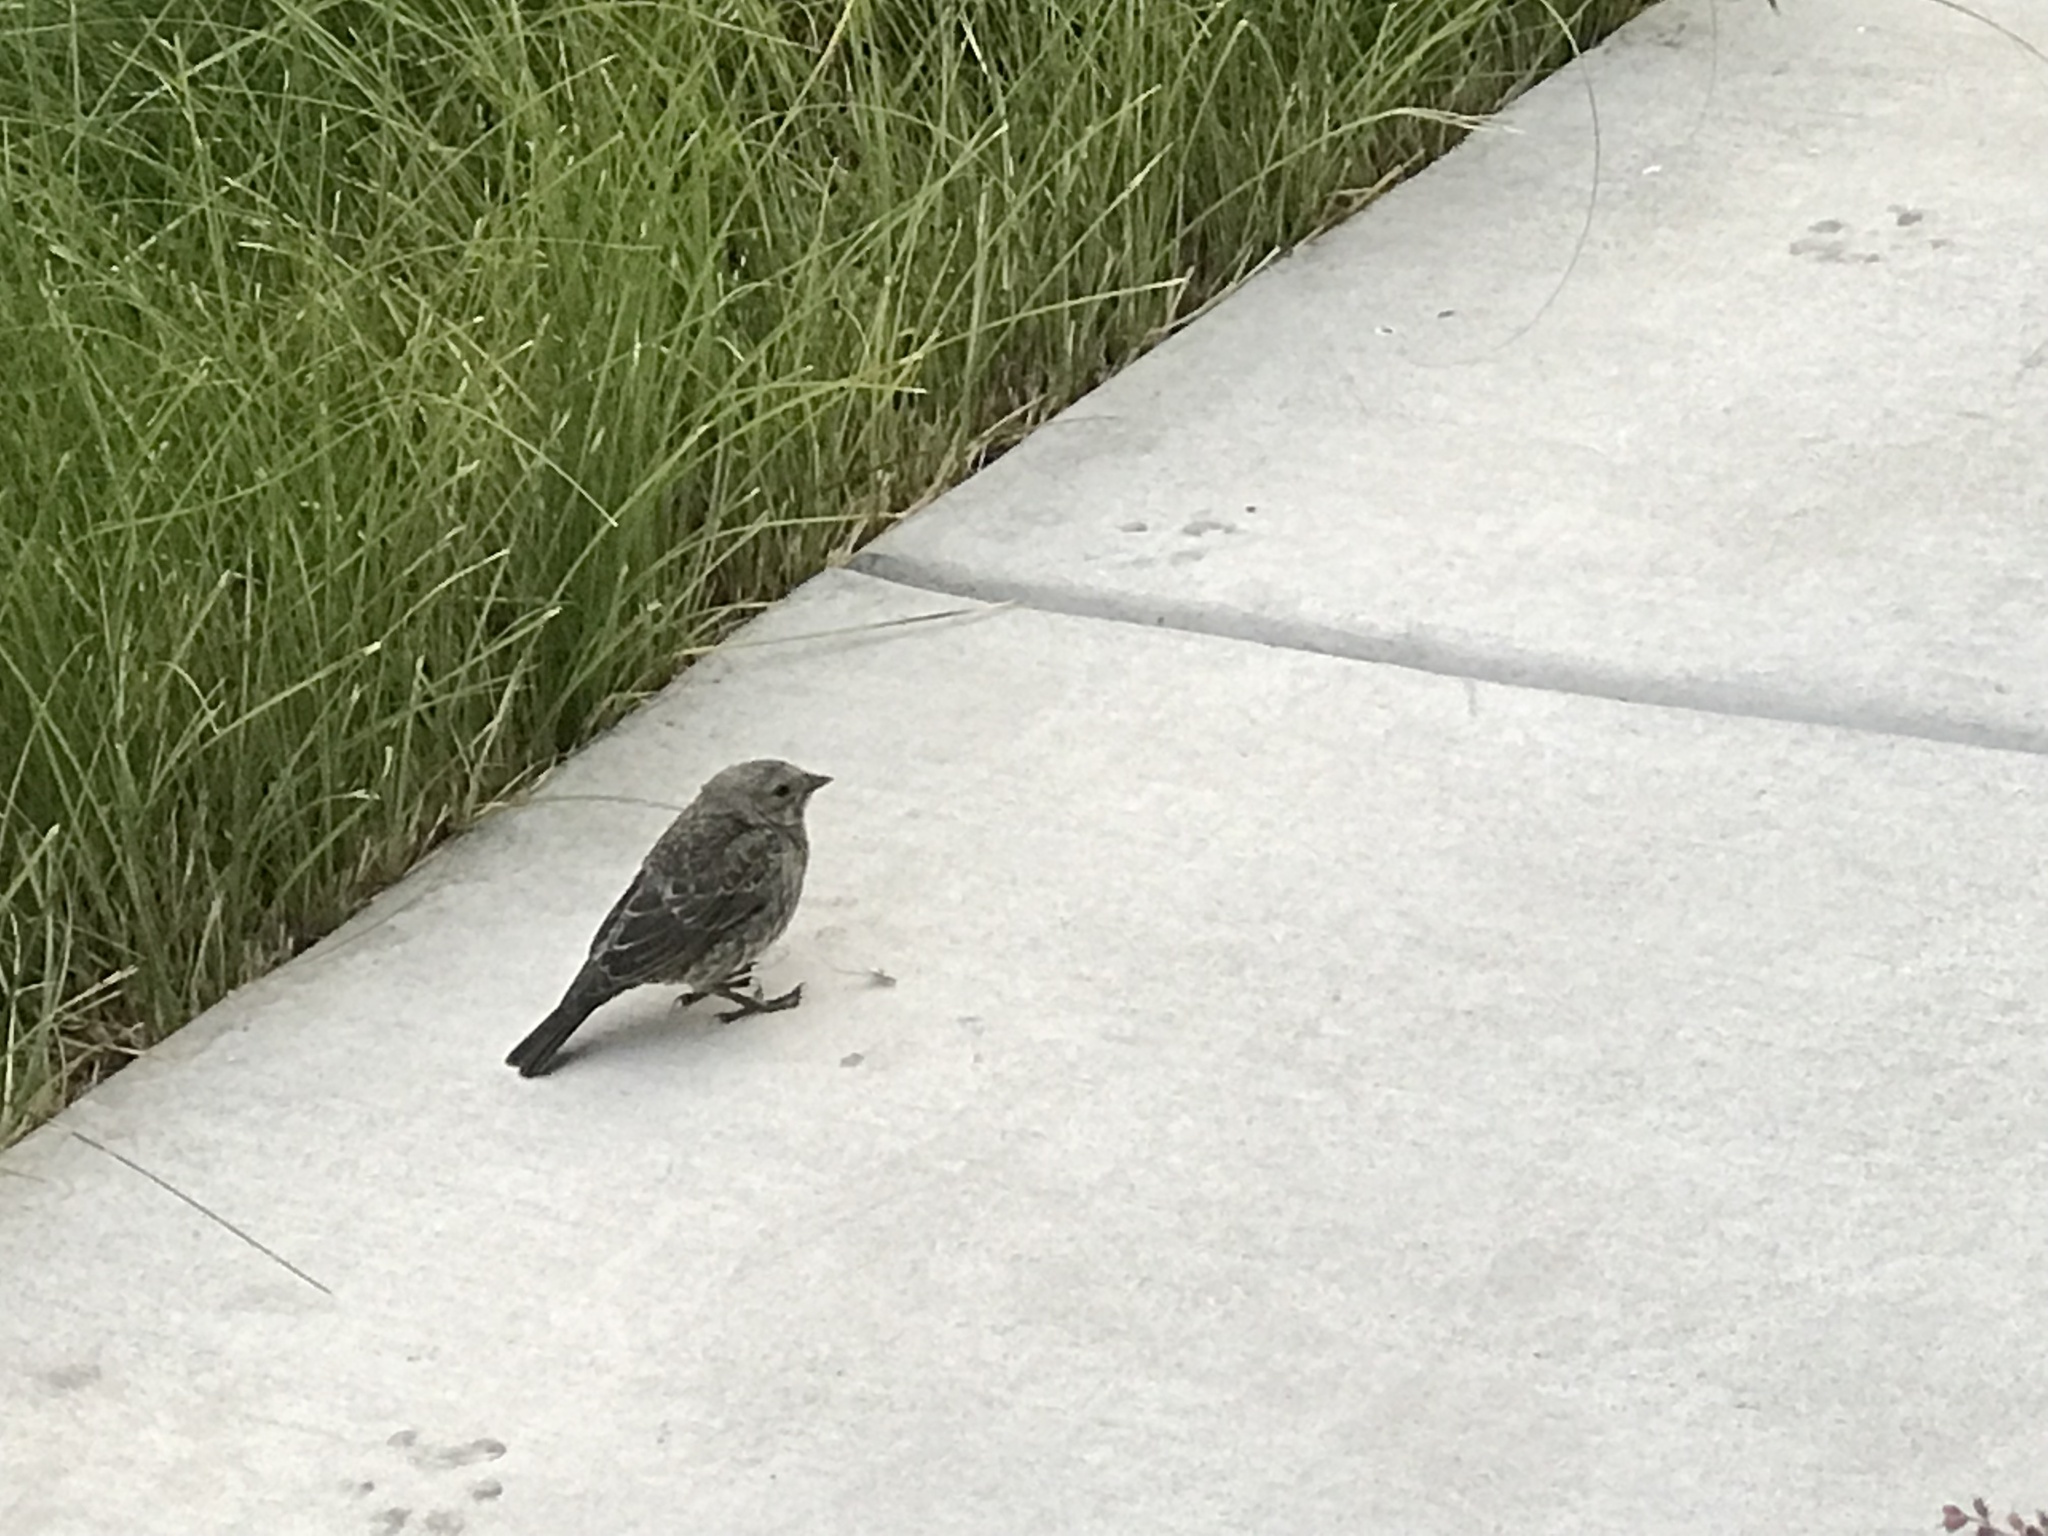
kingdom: Animalia
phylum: Chordata
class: Aves
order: Passeriformes
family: Icteridae
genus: Molothrus
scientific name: Molothrus ater
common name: Brown-headed cowbird
